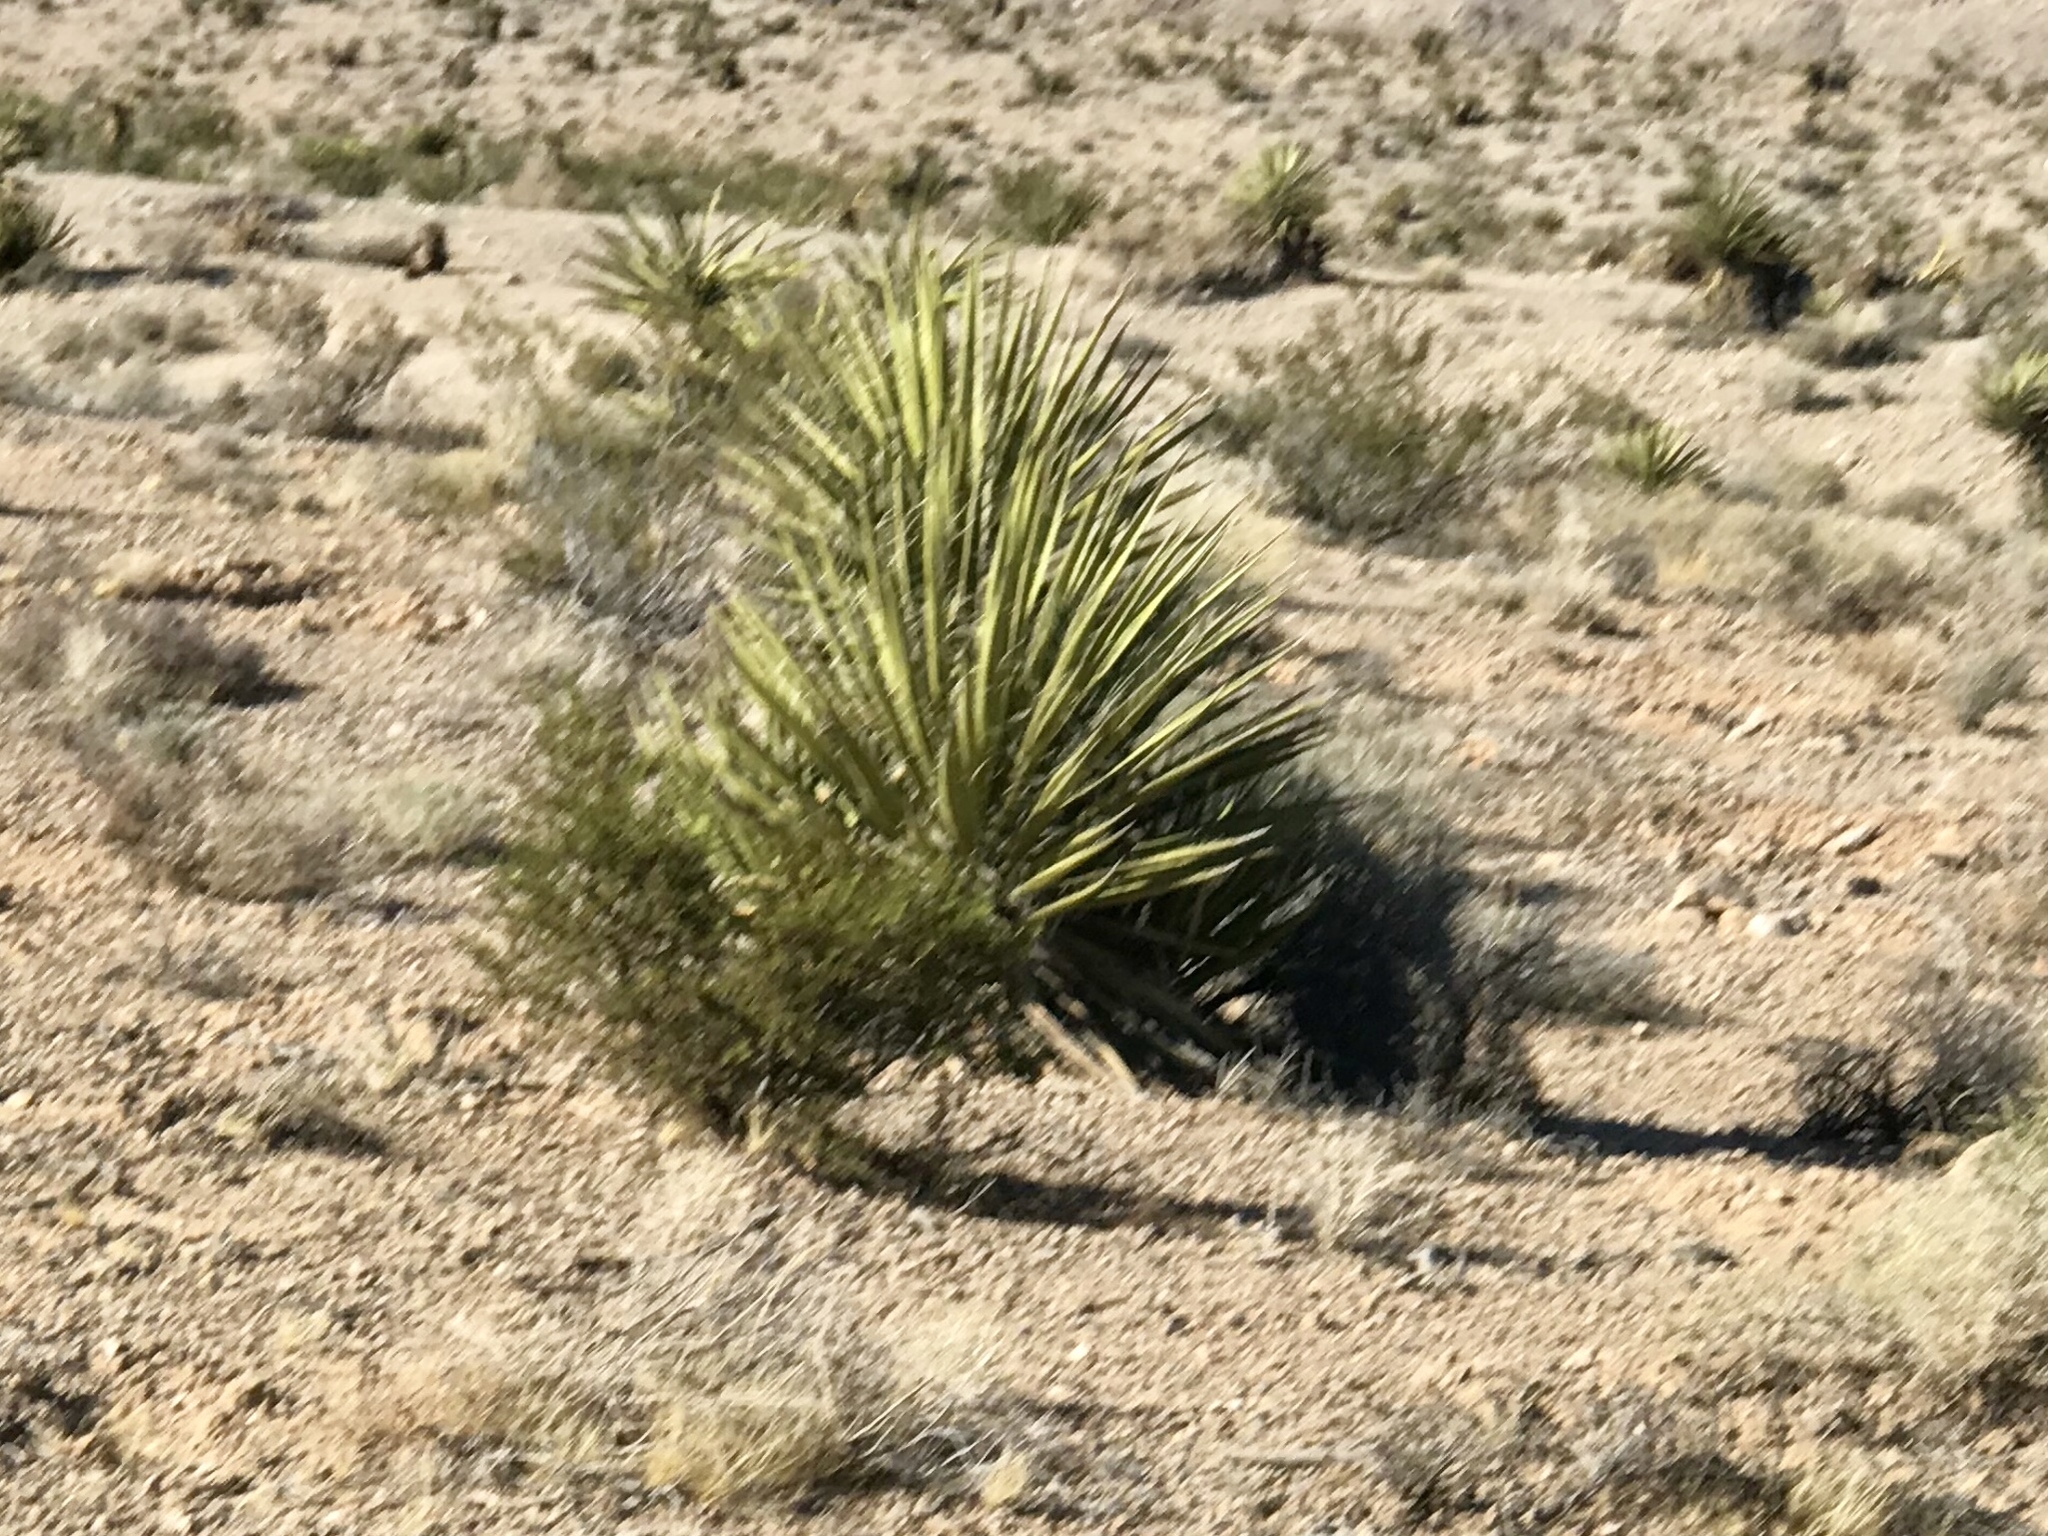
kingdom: Plantae
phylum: Tracheophyta
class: Liliopsida
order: Asparagales
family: Asparagaceae
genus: Yucca
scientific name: Yucca schidigera
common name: Mojave yucca
